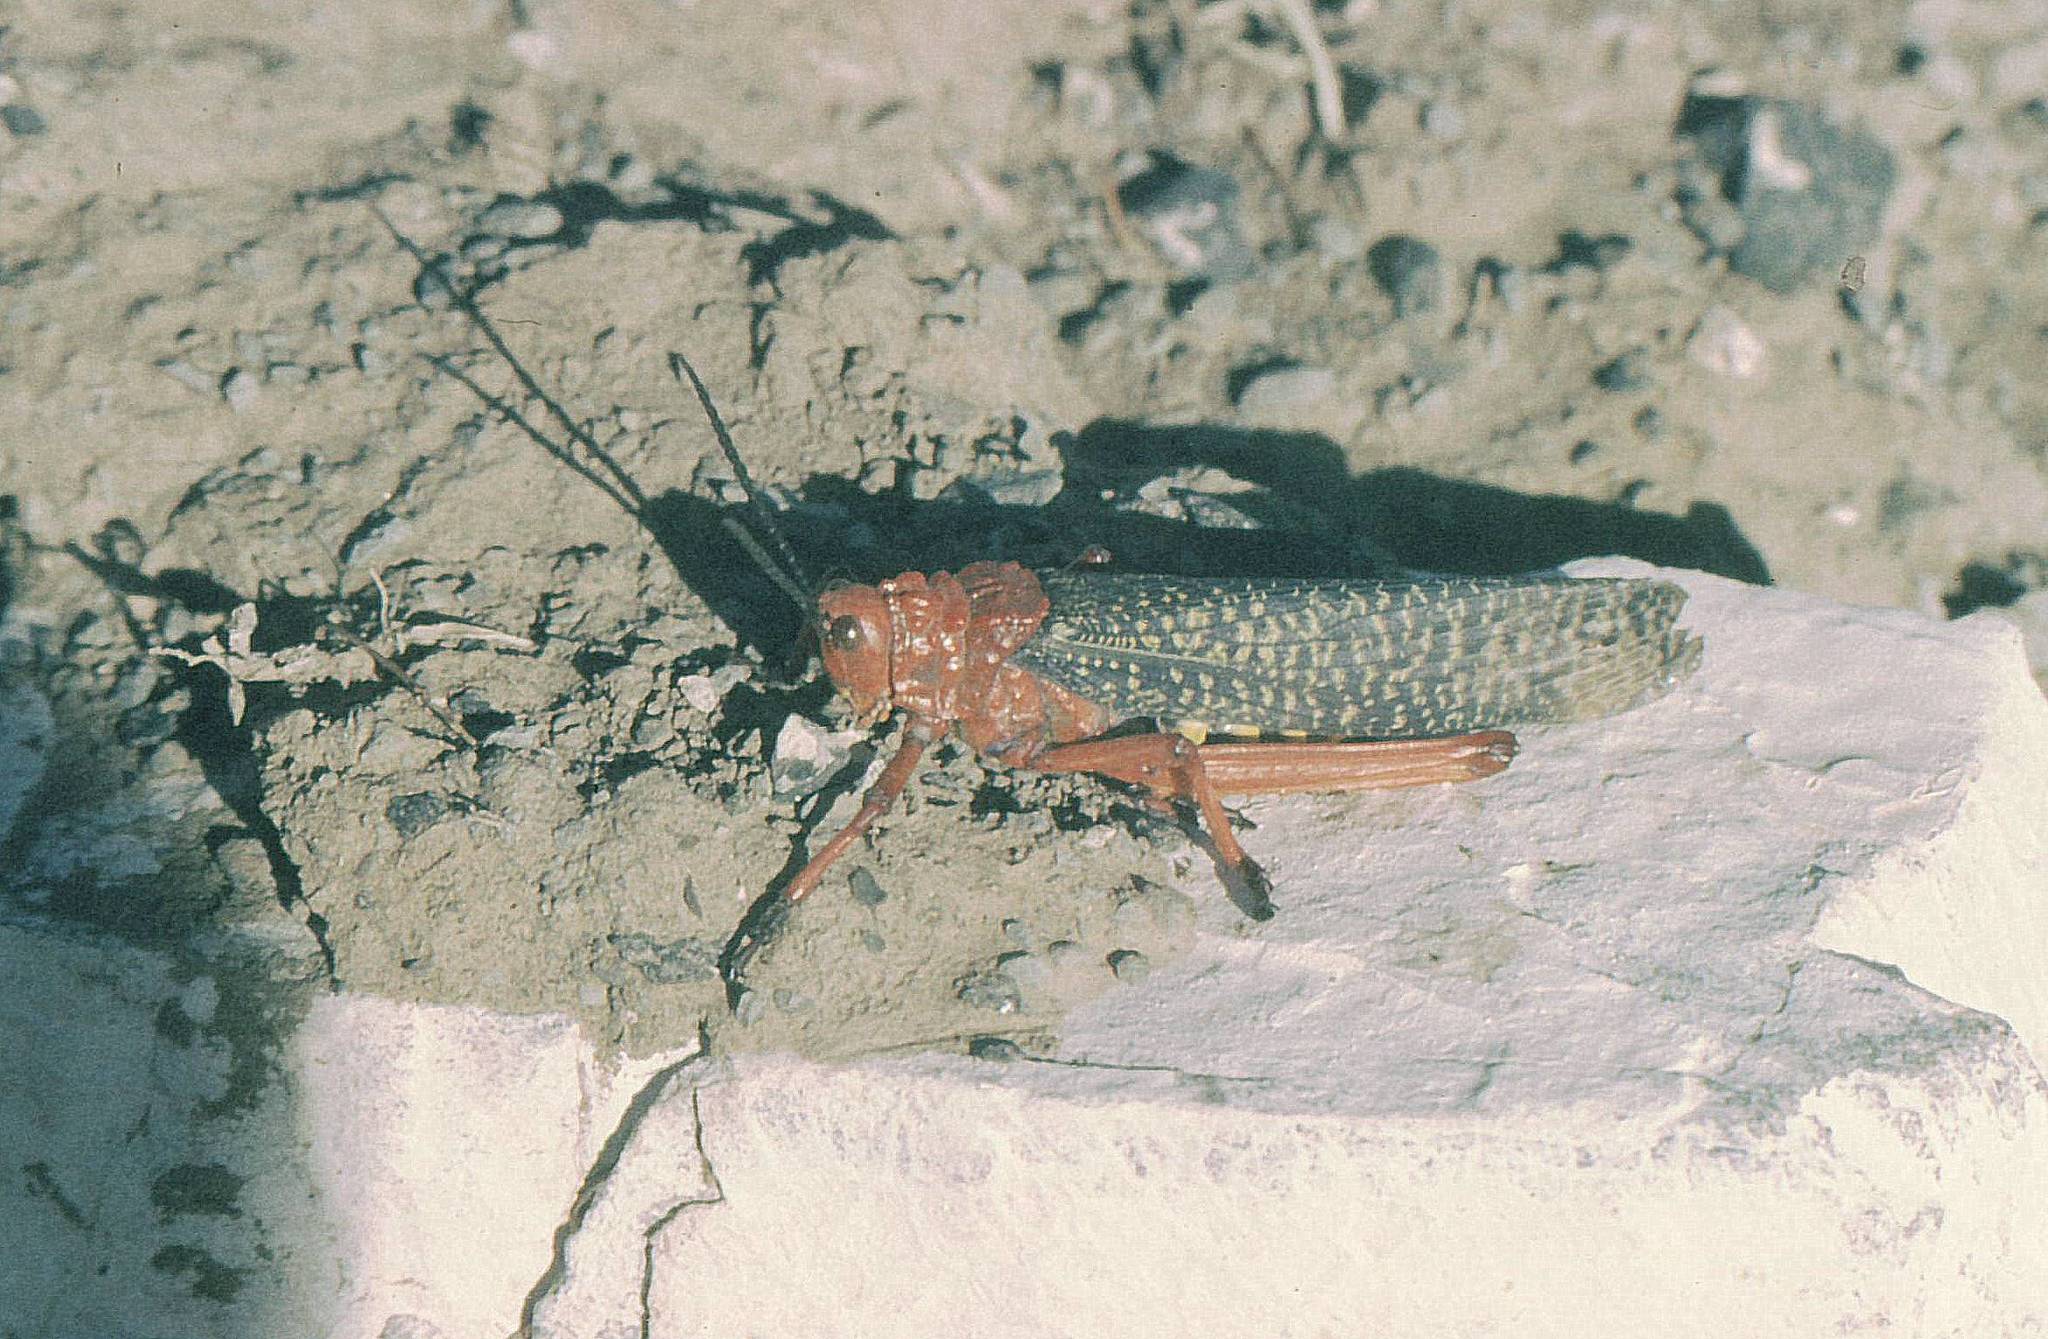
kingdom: Animalia
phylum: Arthropoda
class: Insecta
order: Orthoptera
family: Pyrgomorphidae
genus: Phymateus
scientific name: Phymateus morbillosus
